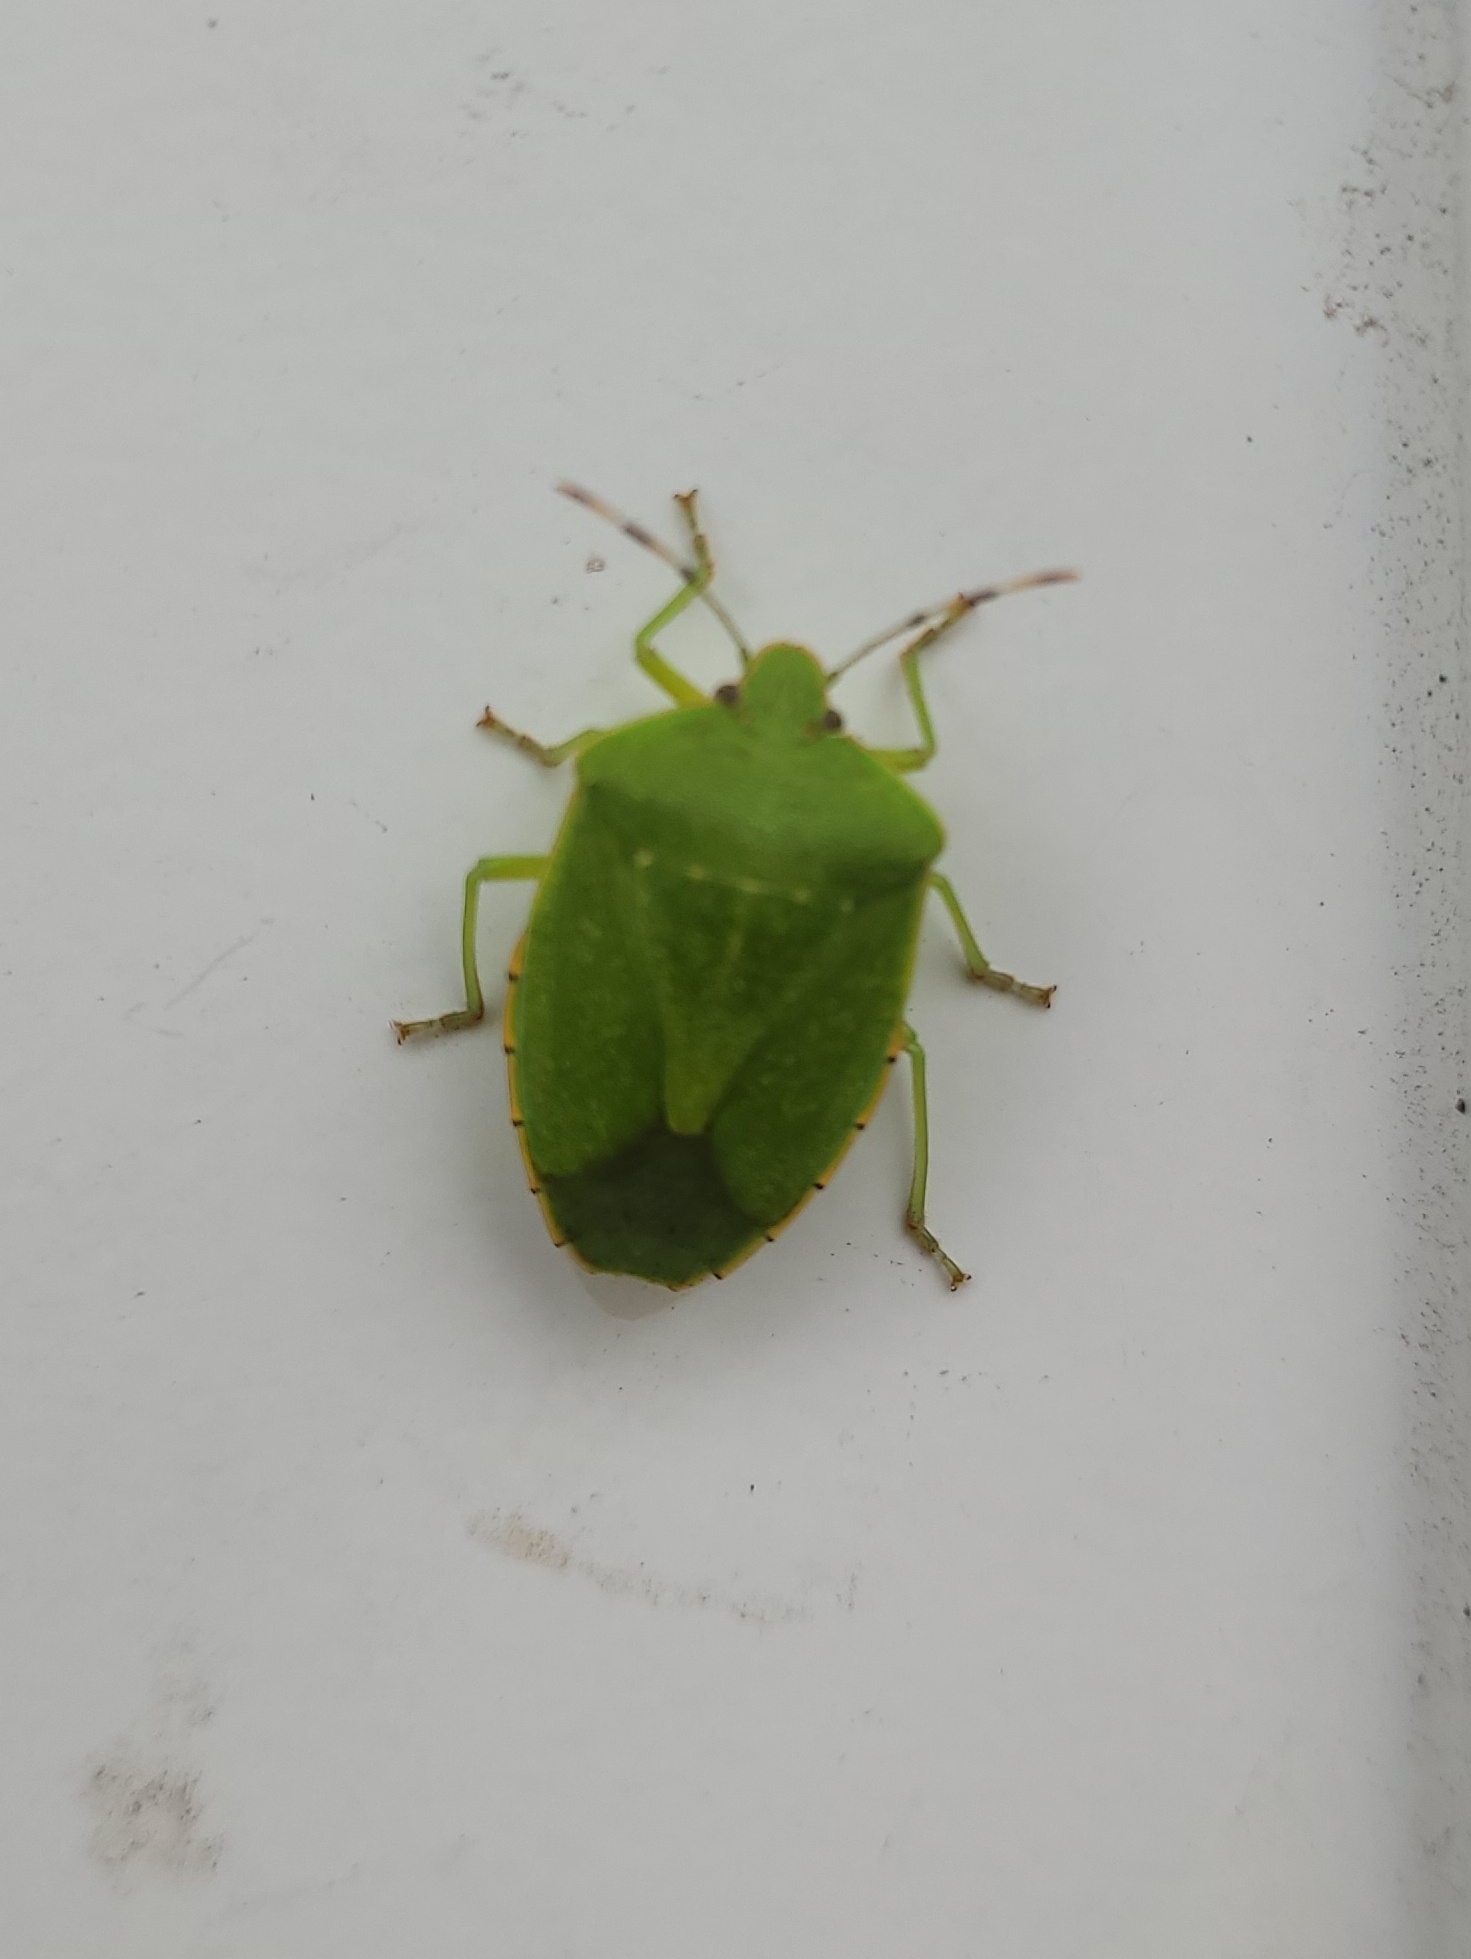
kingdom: Animalia
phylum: Arthropoda
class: Insecta
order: Hemiptera
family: Pentatomidae
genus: Chinavia
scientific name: Chinavia hilaris
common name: Green stink bug
